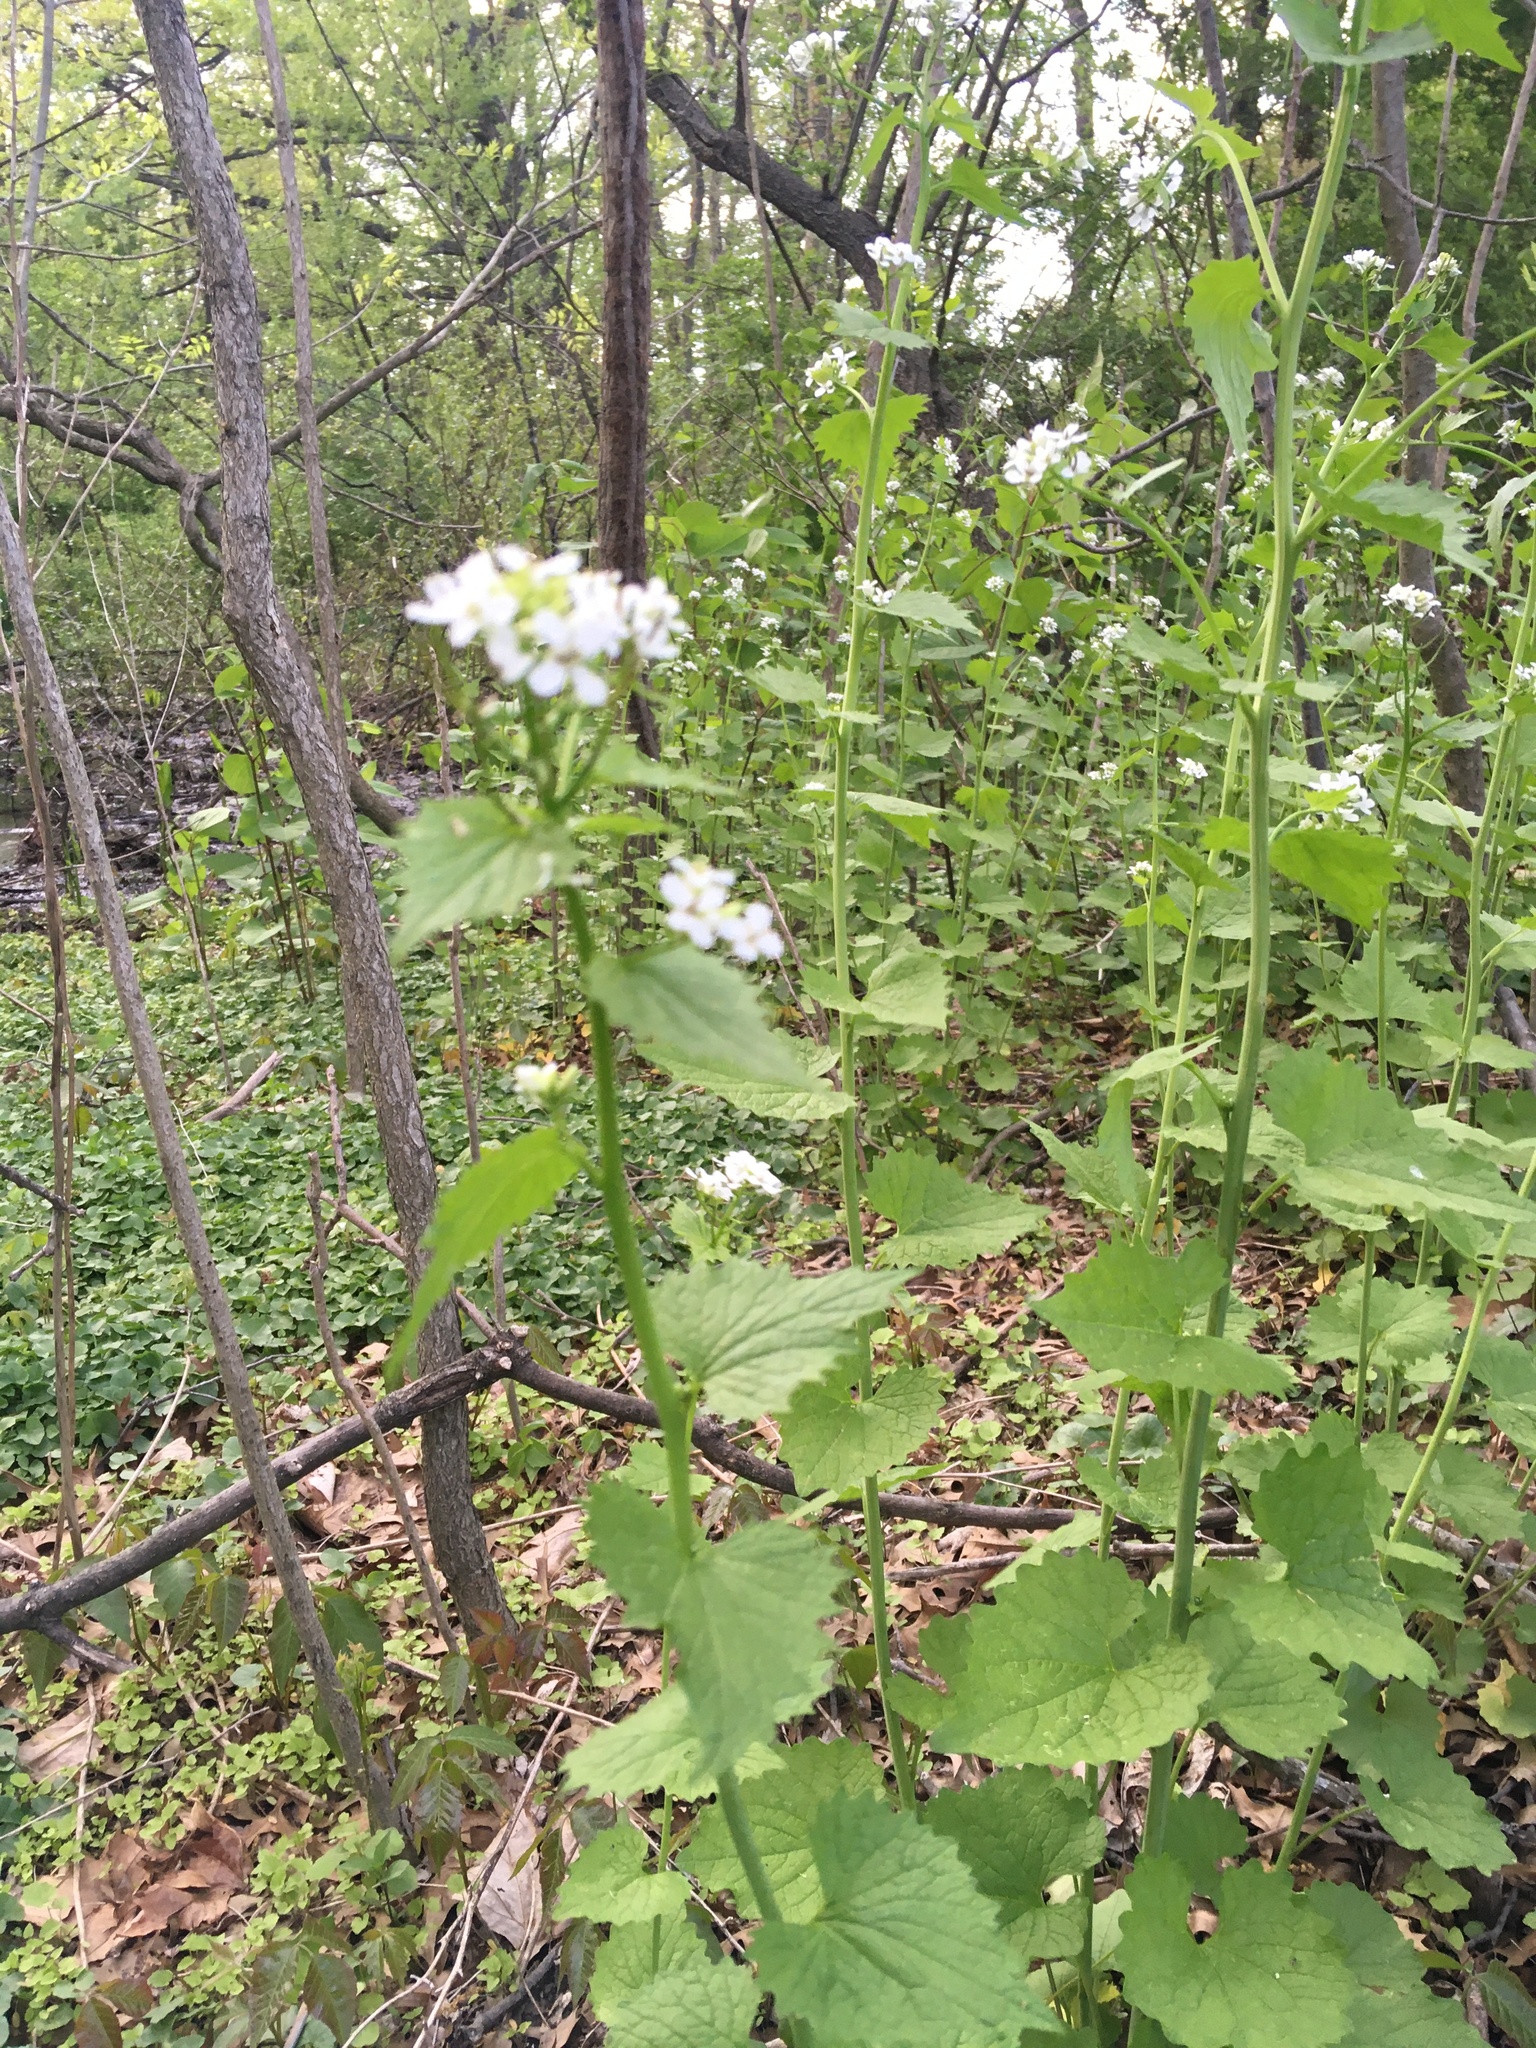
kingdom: Plantae
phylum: Tracheophyta
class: Magnoliopsida
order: Brassicales
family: Brassicaceae
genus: Alliaria
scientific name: Alliaria petiolata
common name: Garlic mustard
